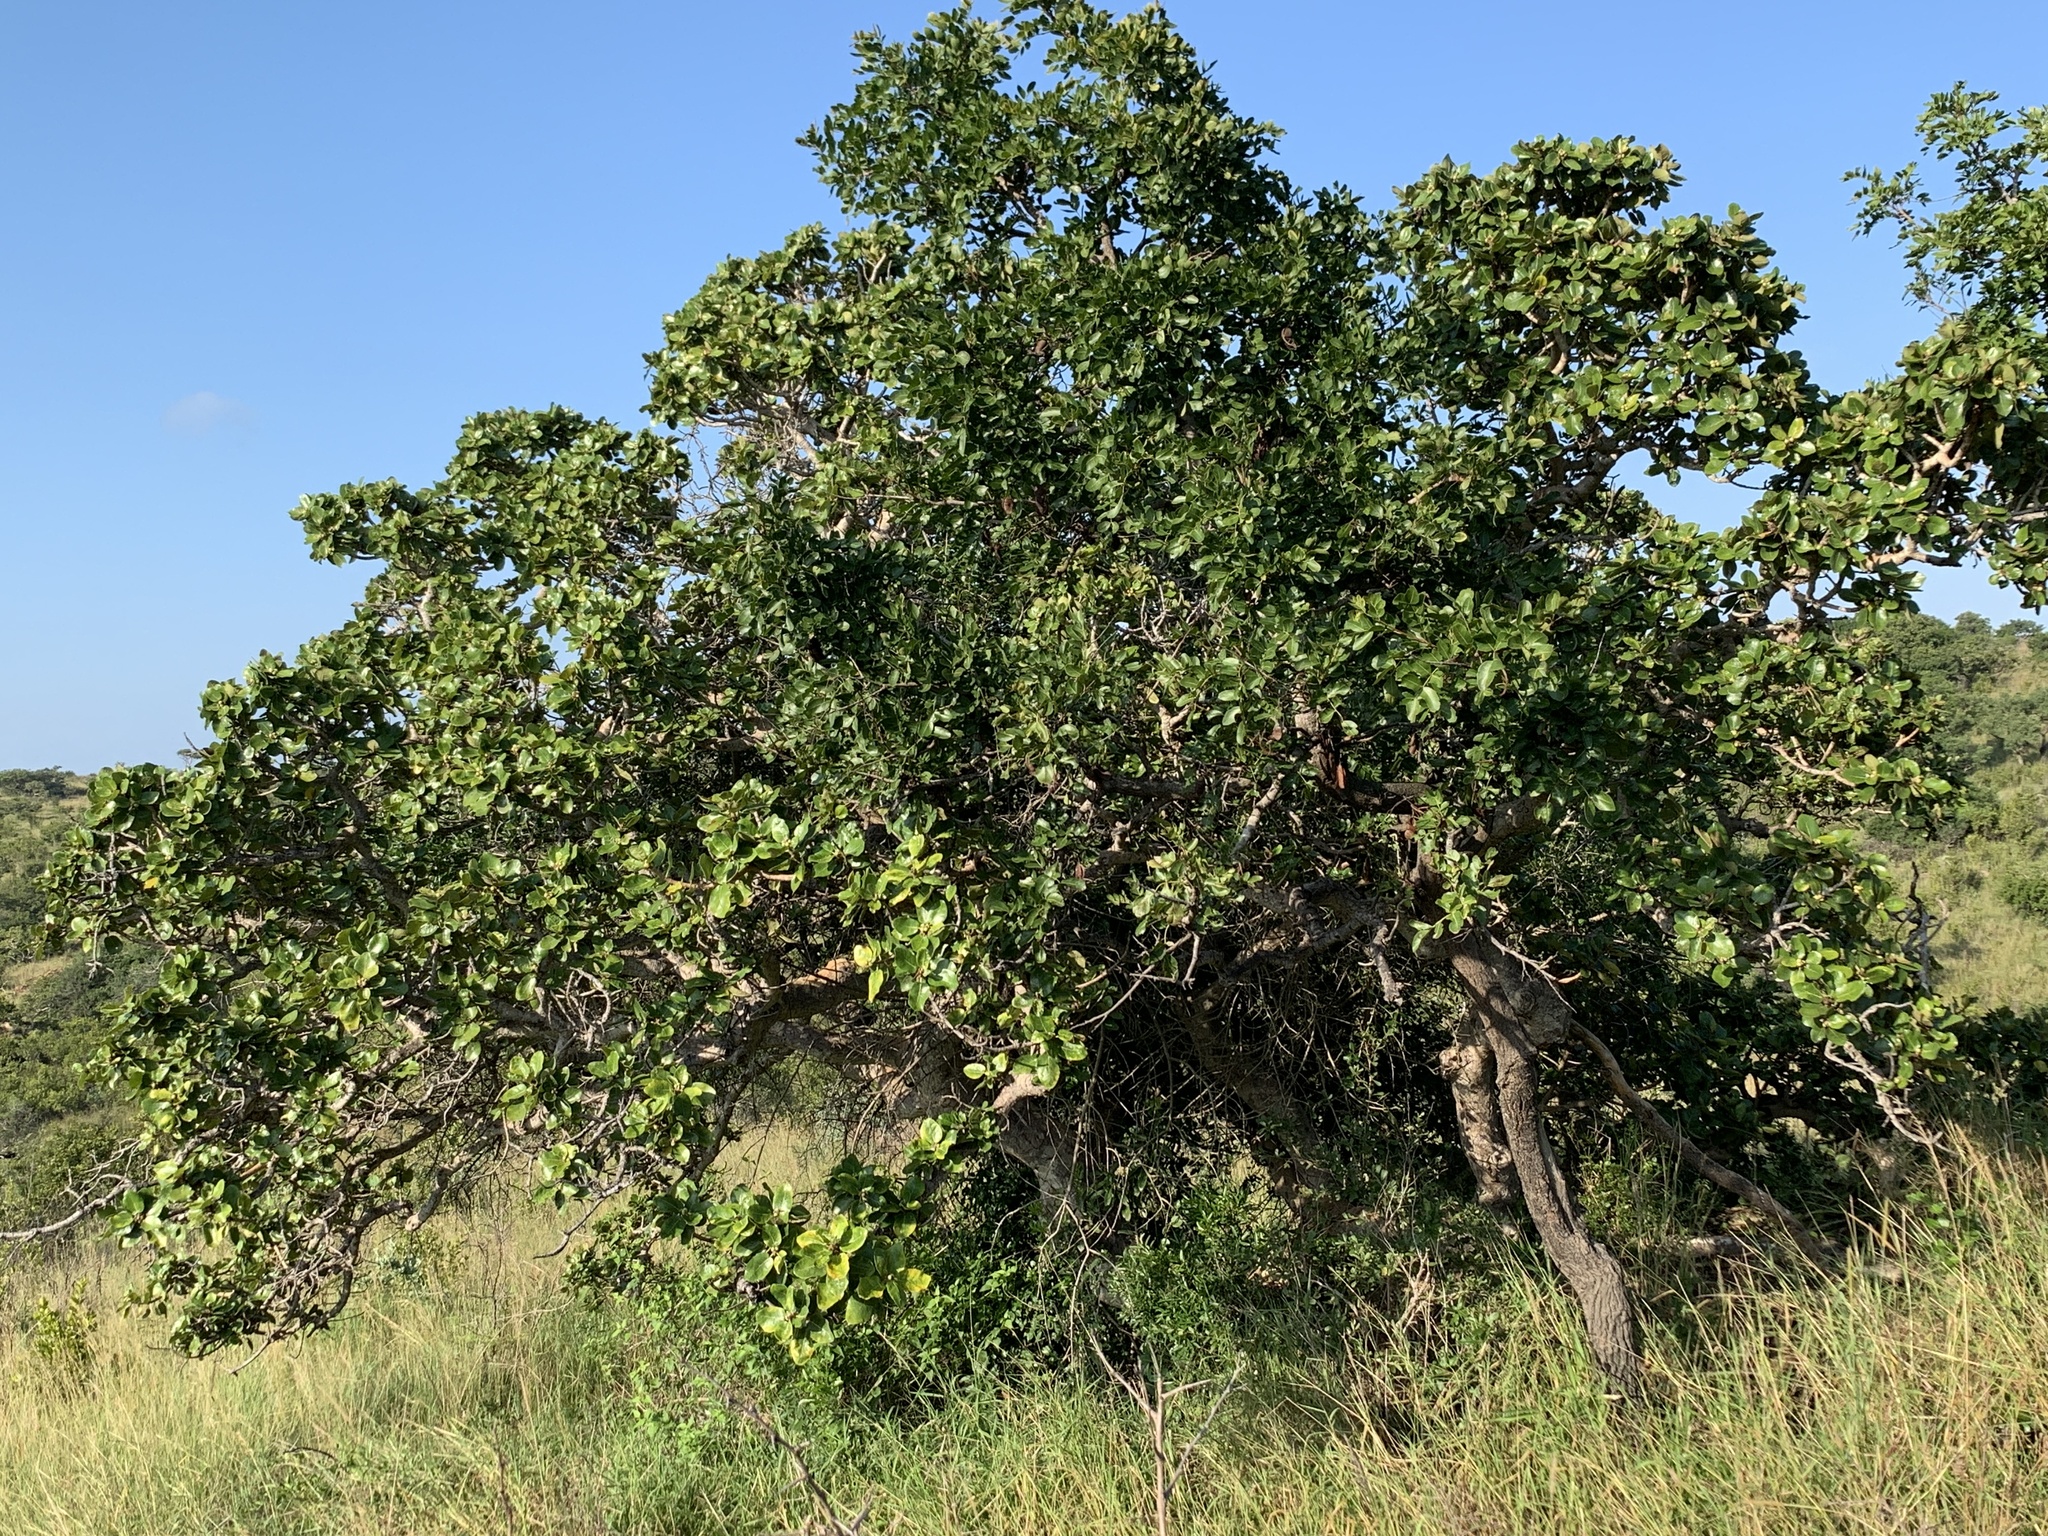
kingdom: Plantae
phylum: Tracheophyta
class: Magnoliopsida
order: Rosales
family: Moraceae
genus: Ficus
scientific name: Ficus glumosa
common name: Hairy rock fig
